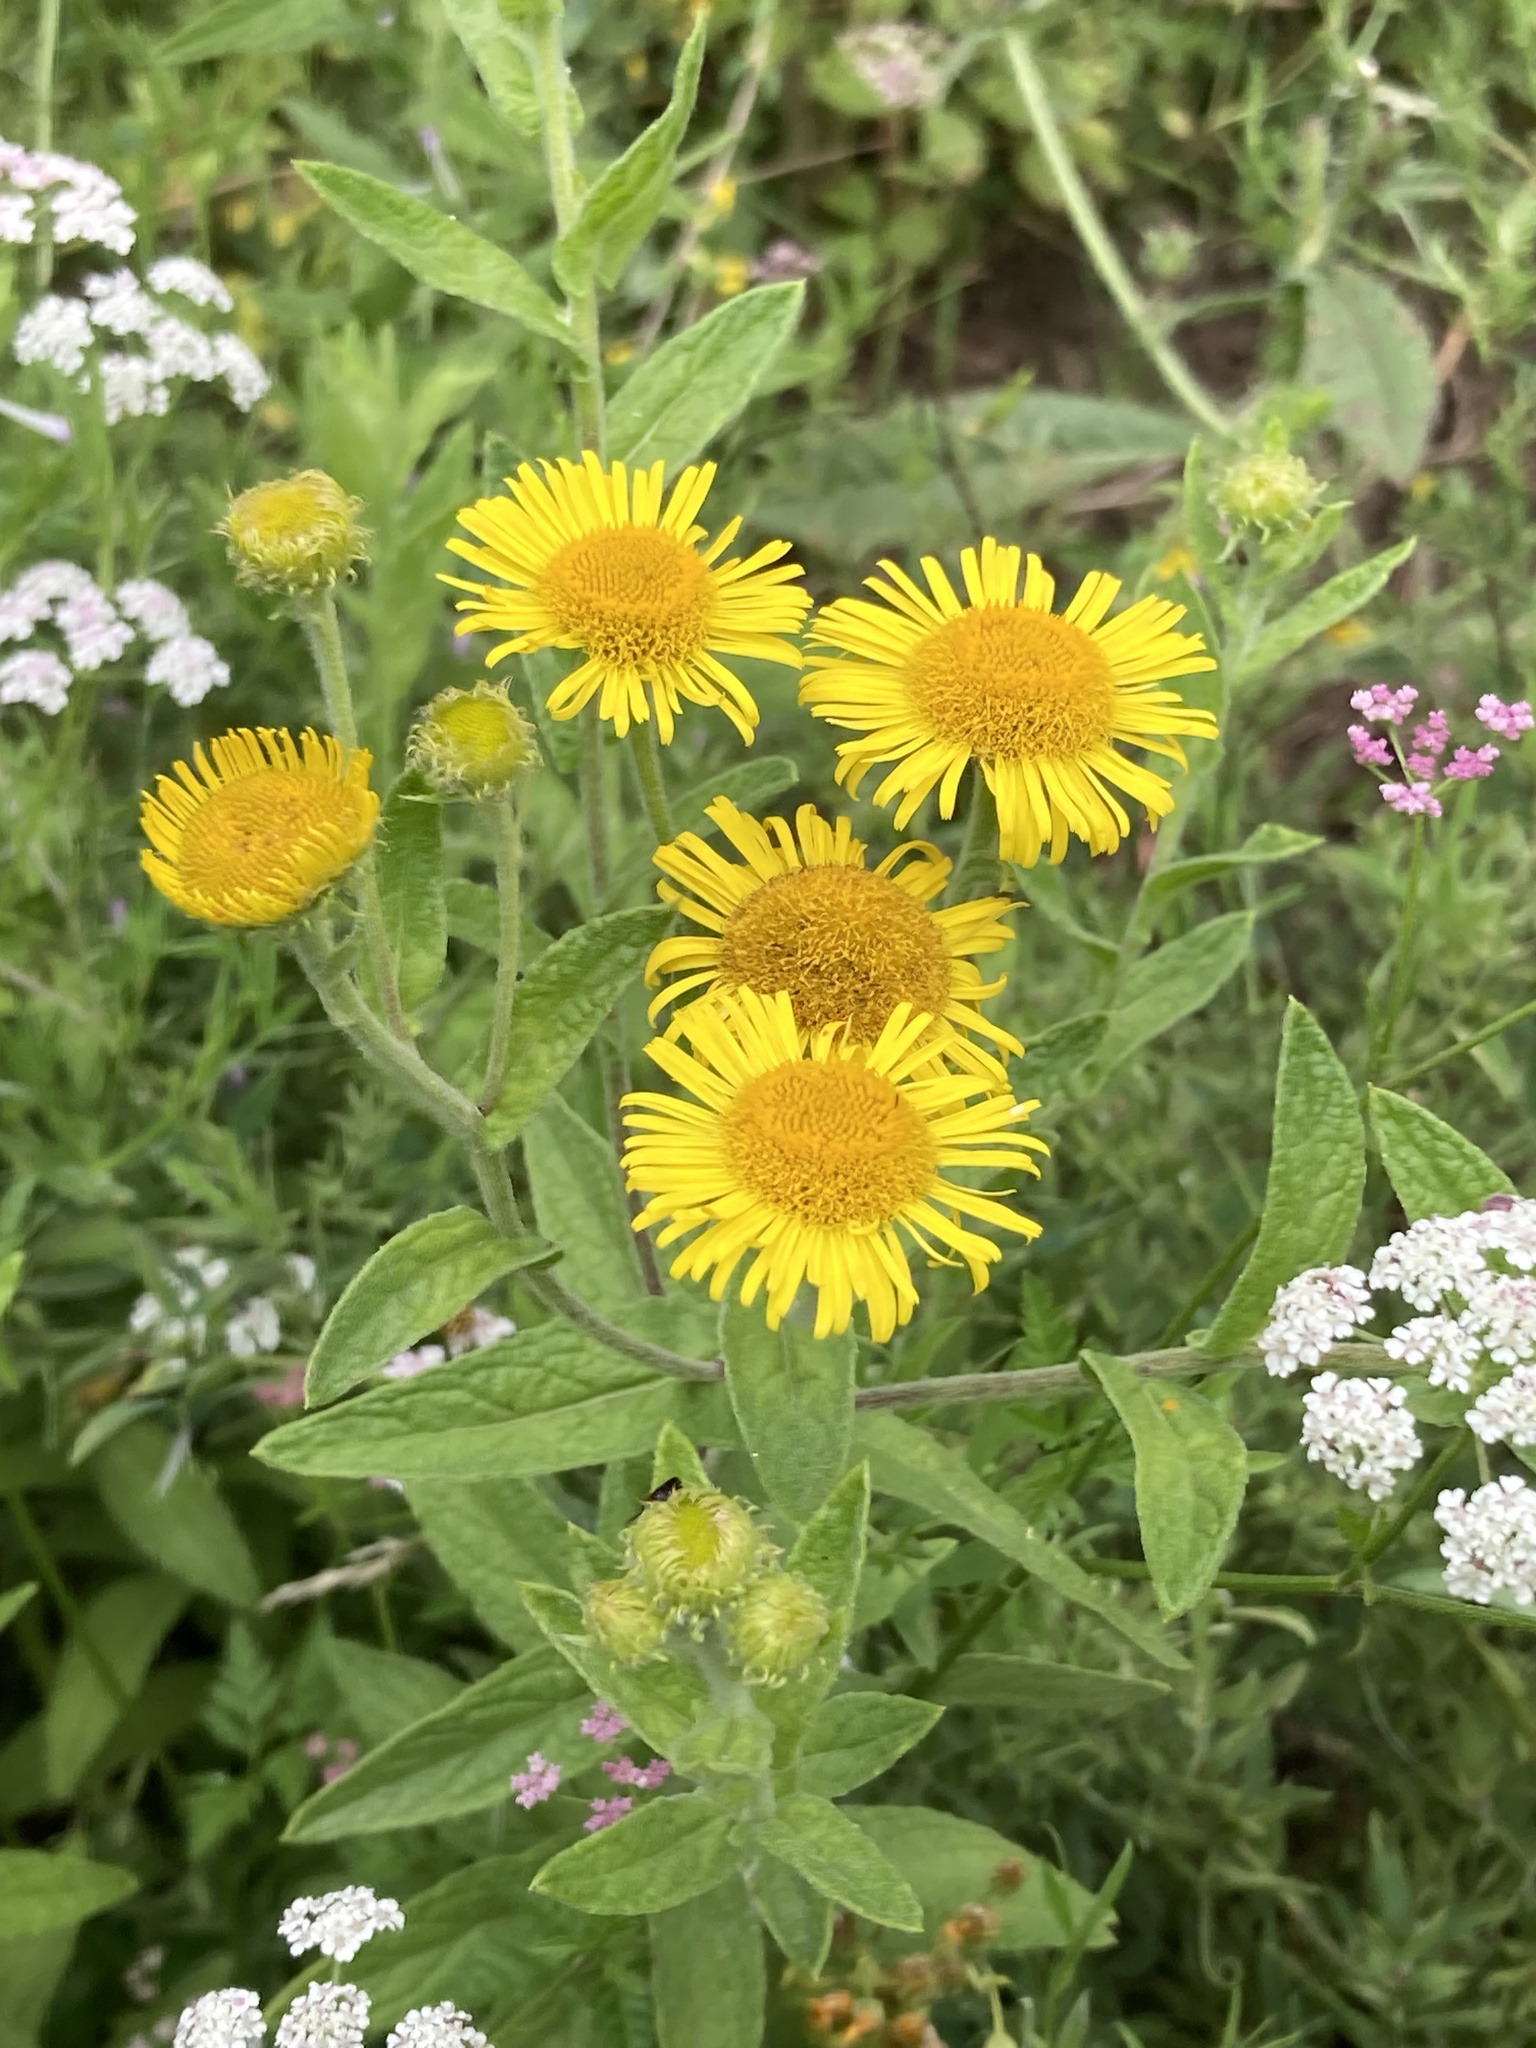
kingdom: Plantae
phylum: Tracheophyta
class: Magnoliopsida
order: Asterales
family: Asteraceae
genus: Pulicaria
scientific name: Pulicaria dysenterica
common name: Common fleabane
